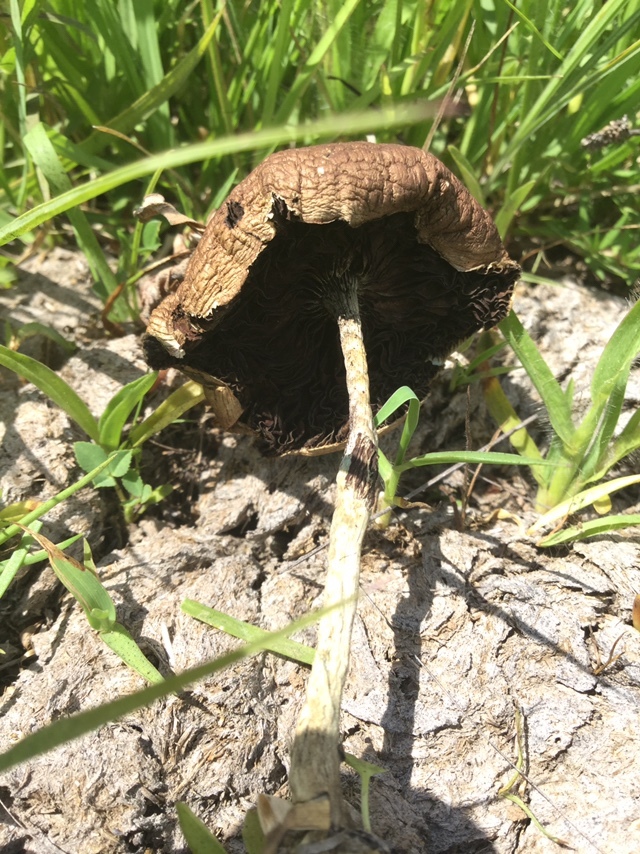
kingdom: Fungi
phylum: Basidiomycota
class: Agaricomycetes
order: Agaricales
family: Hymenogastraceae
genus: Psilocybe
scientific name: Psilocybe cubensis
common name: Golden brownie
